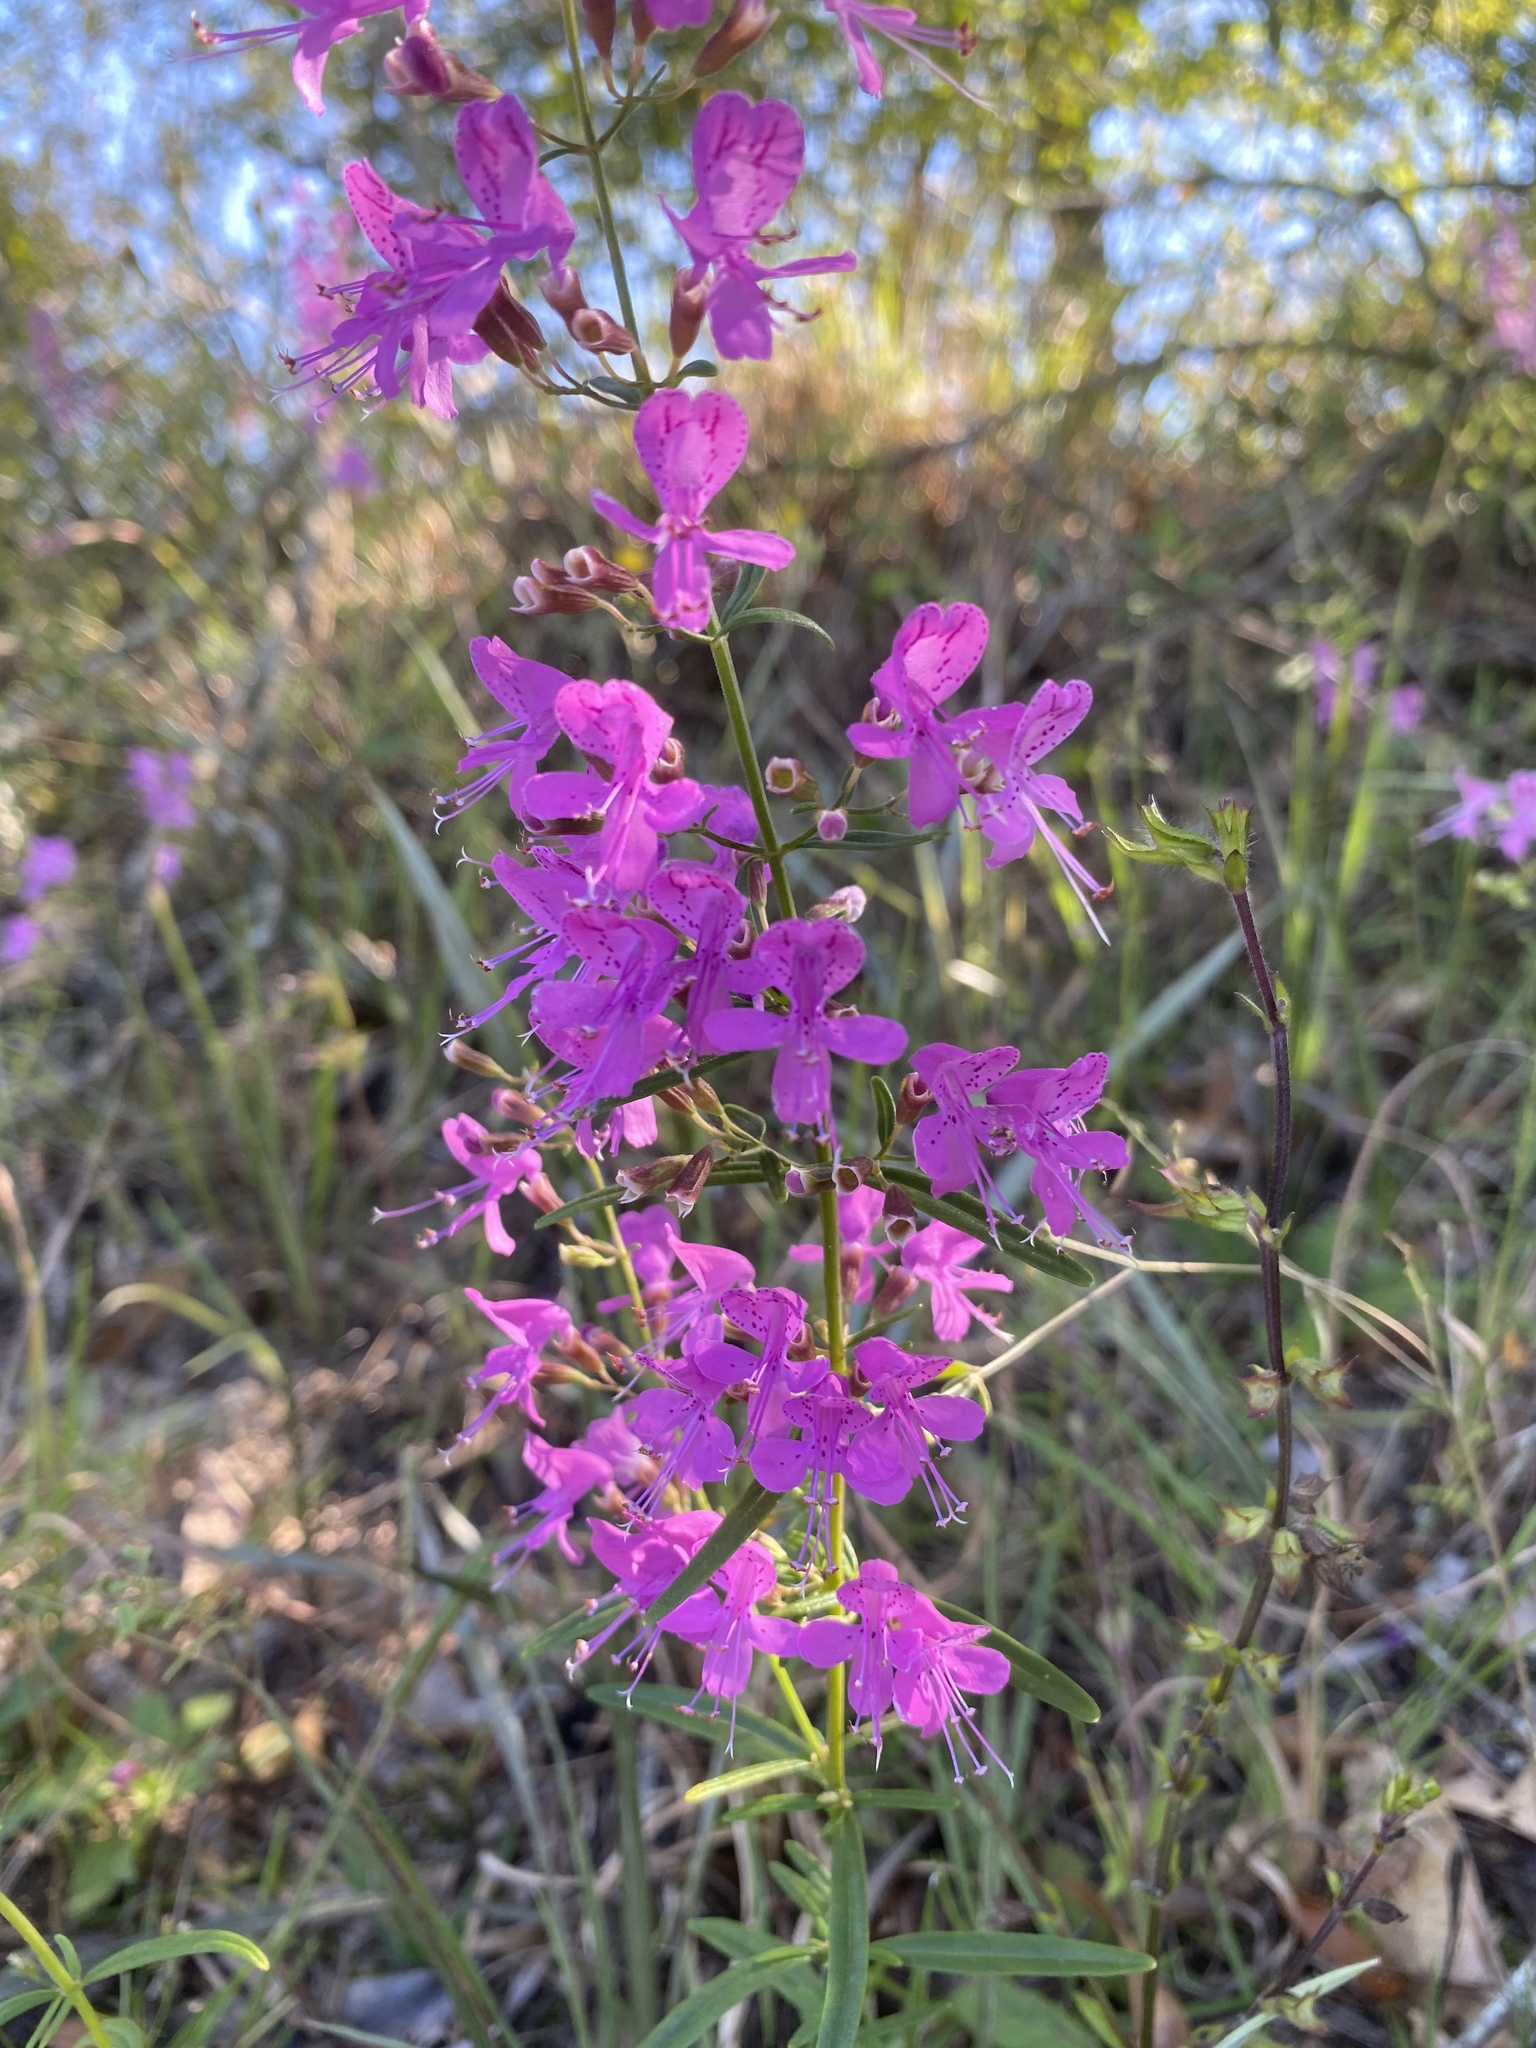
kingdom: Plantae
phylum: Tracheophyta
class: Magnoliopsida
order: Lamiales
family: Lamiaceae
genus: Dicerandra
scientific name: Dicerandra linearifolia
